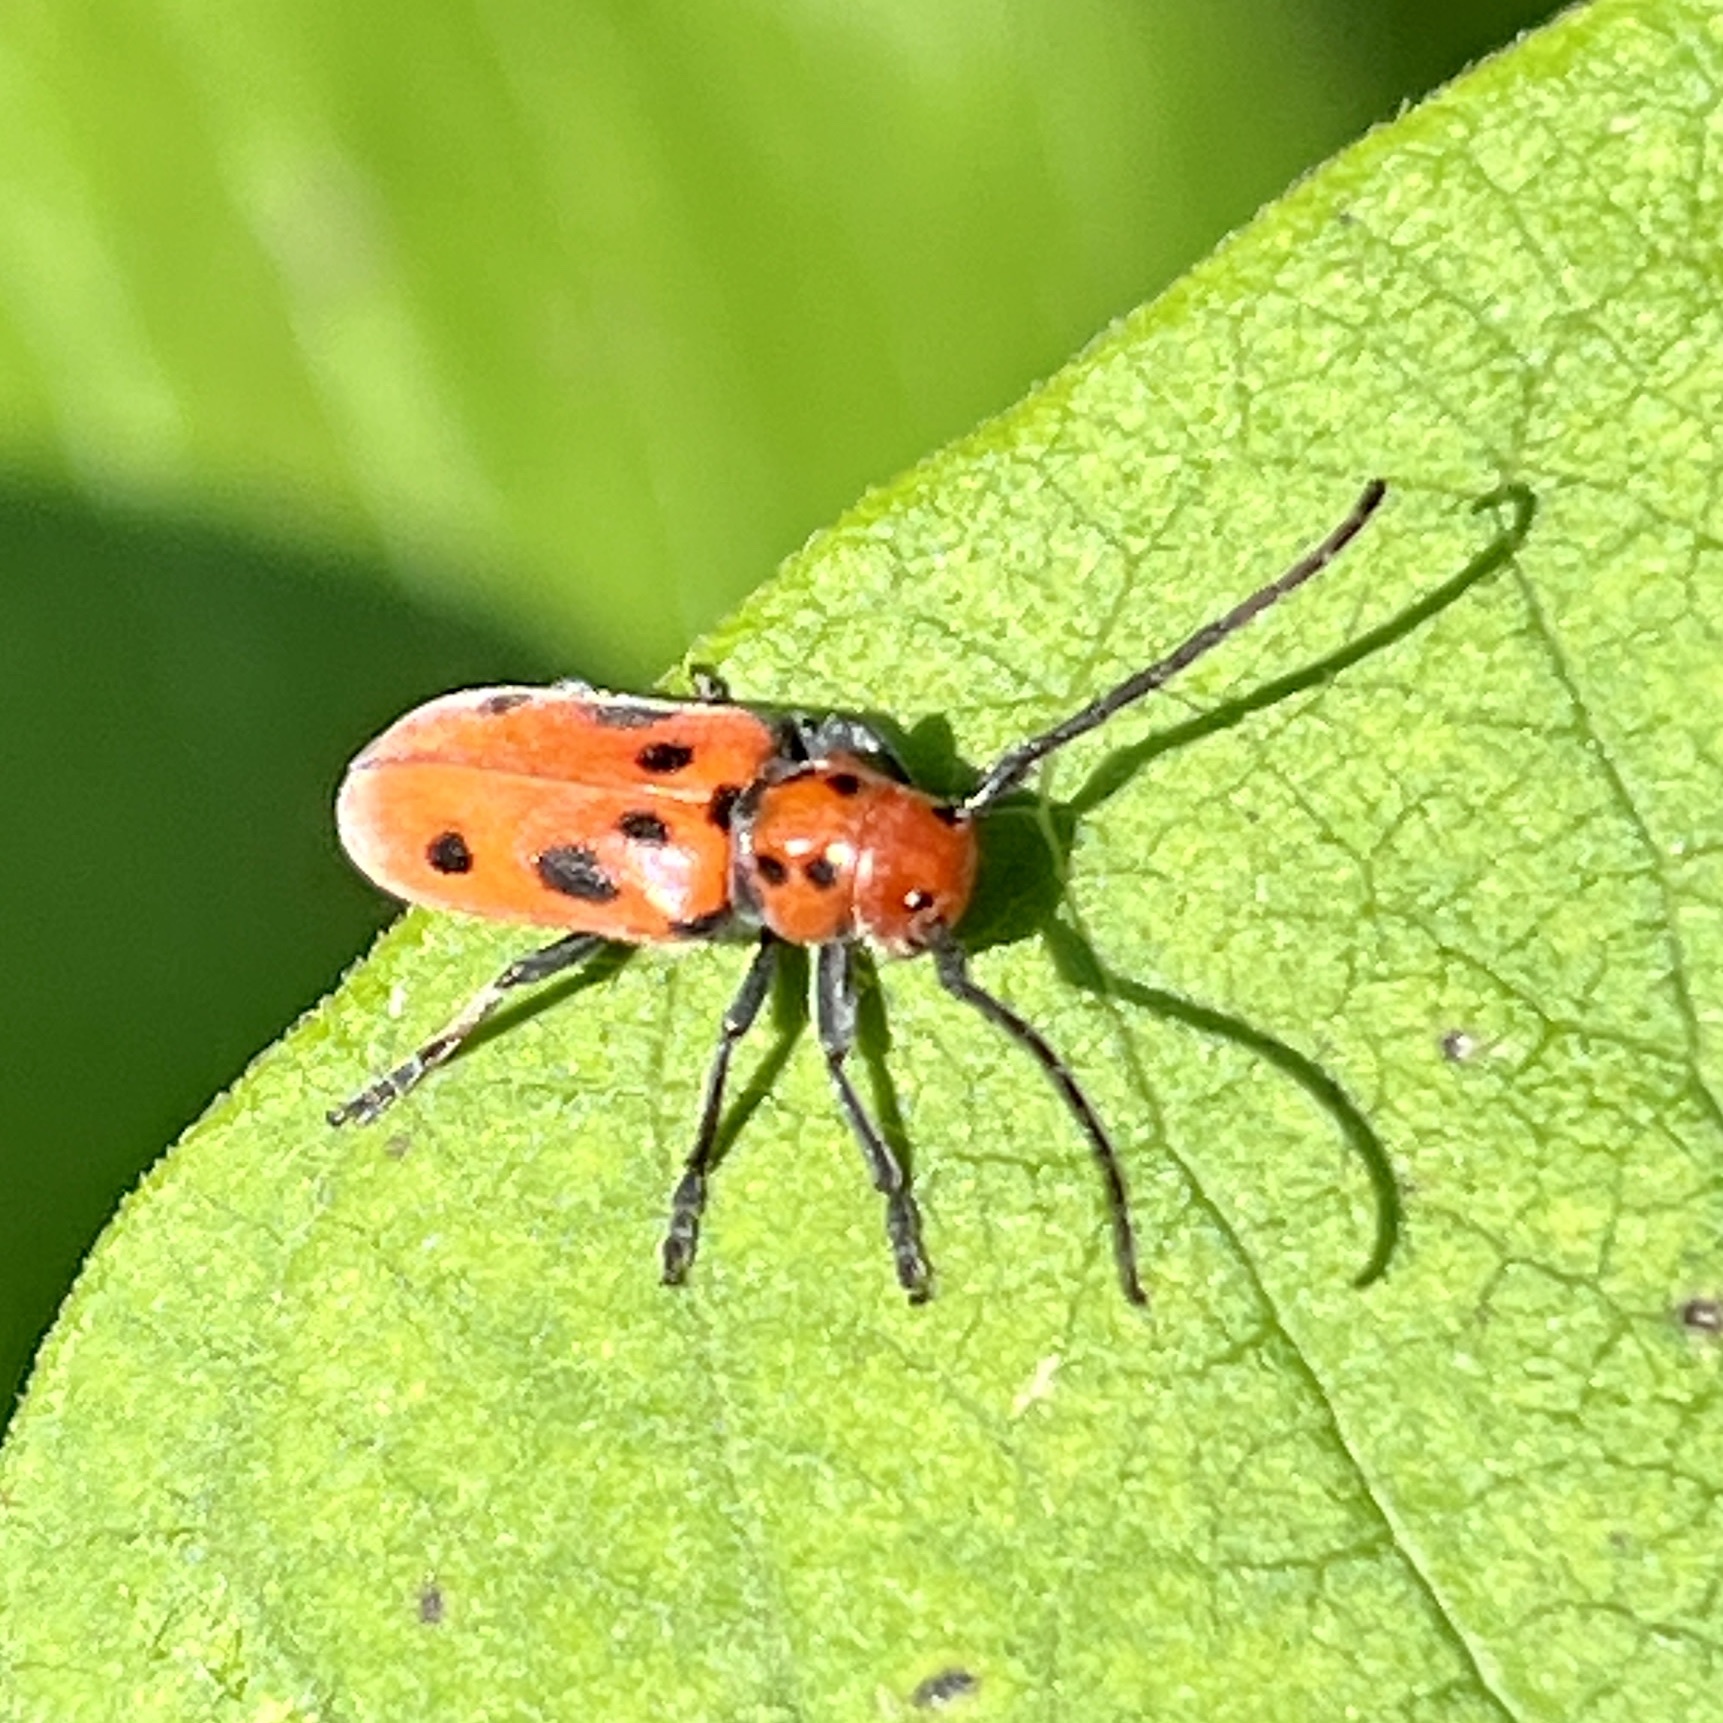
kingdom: Animalia
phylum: Arthropoda
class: Insecta
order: Coleoptera
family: Cerambycidae
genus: Tetraopes
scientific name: Tetraopes tetrophthalmus
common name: Red milkweed beetle
